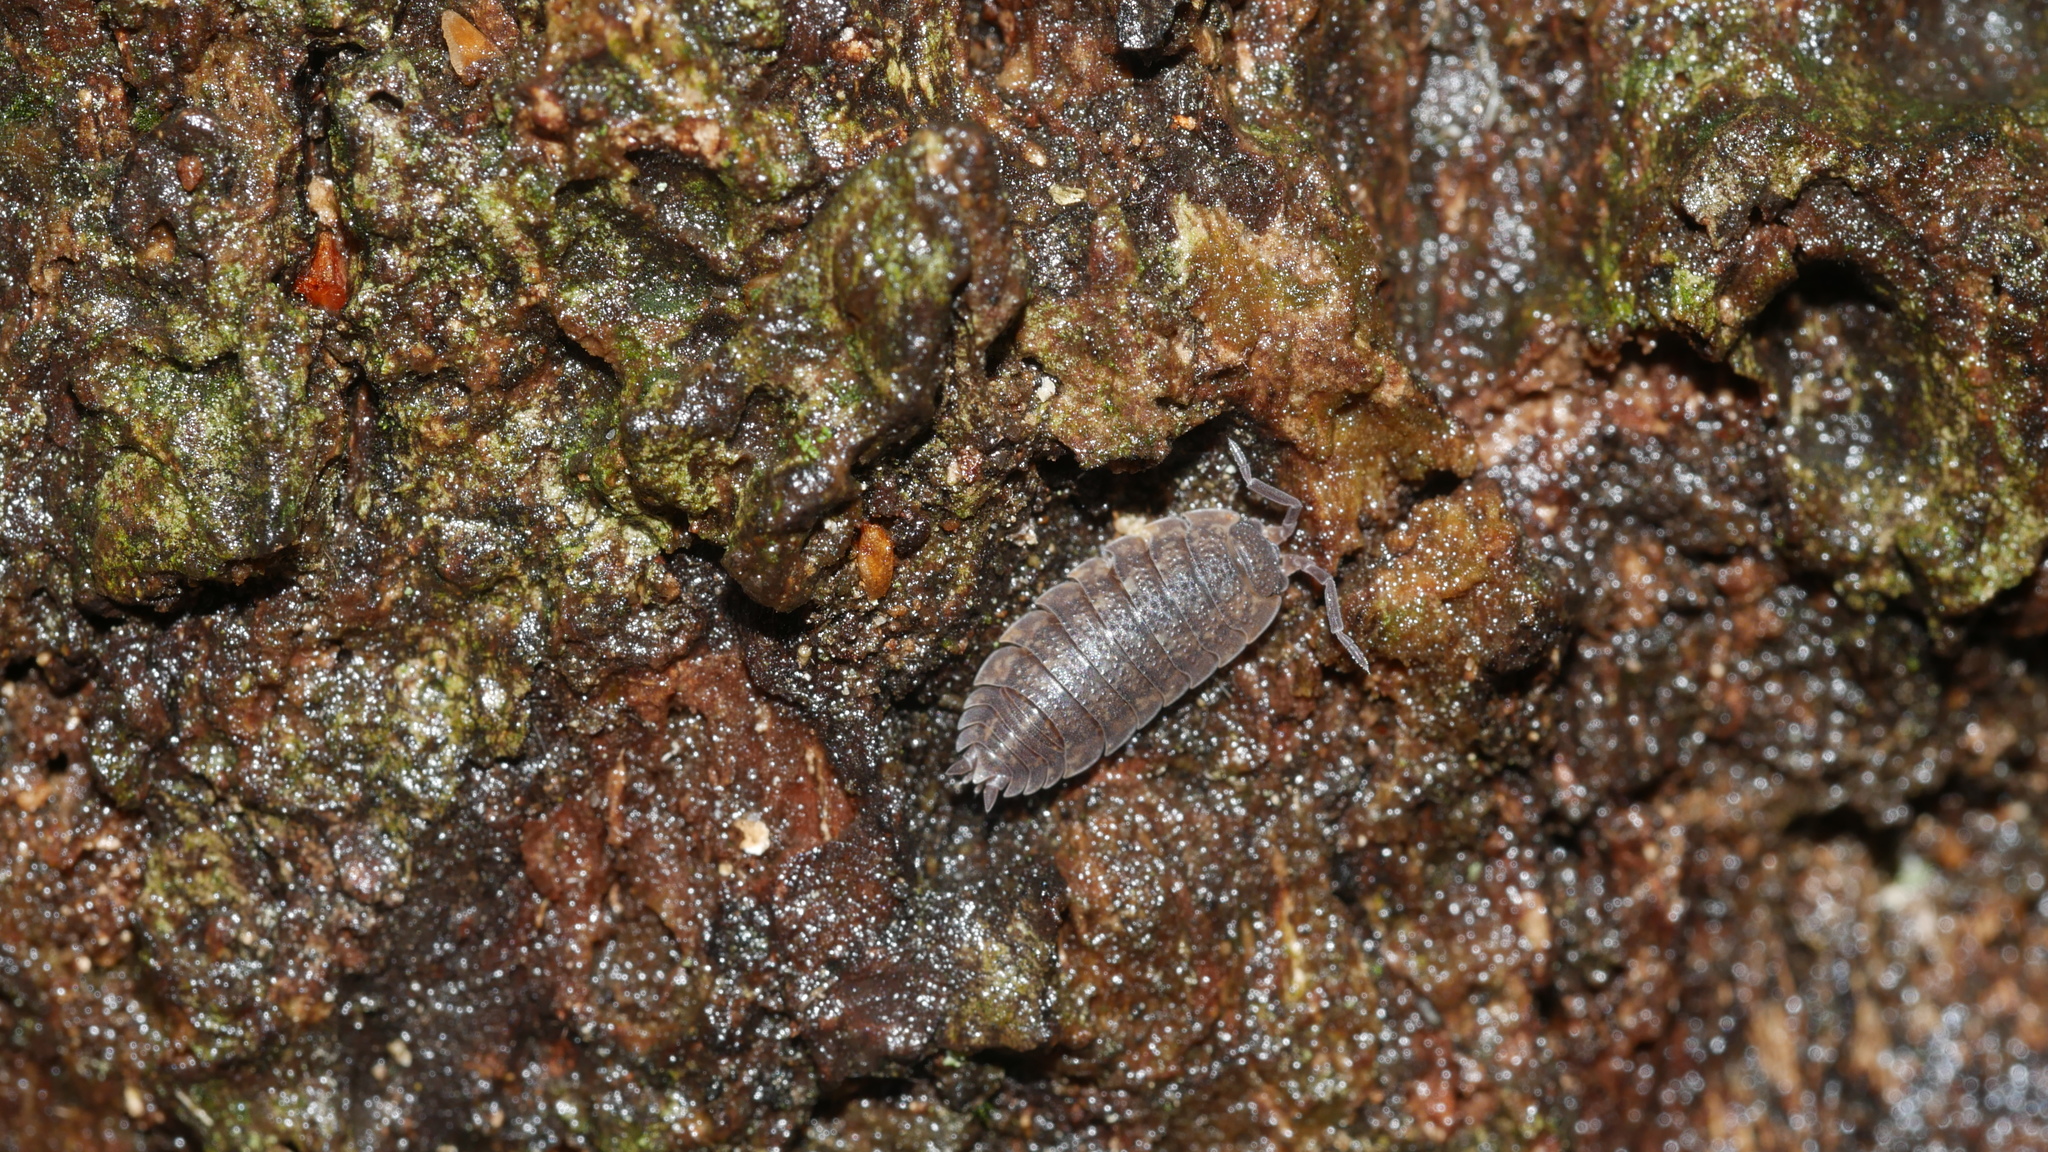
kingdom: Animalia
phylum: Arthropoda
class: Malacostraca
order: Isopoda
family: Porcellionidae
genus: Porcellio
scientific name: Porcellio scaber
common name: Common rough woodlouse
